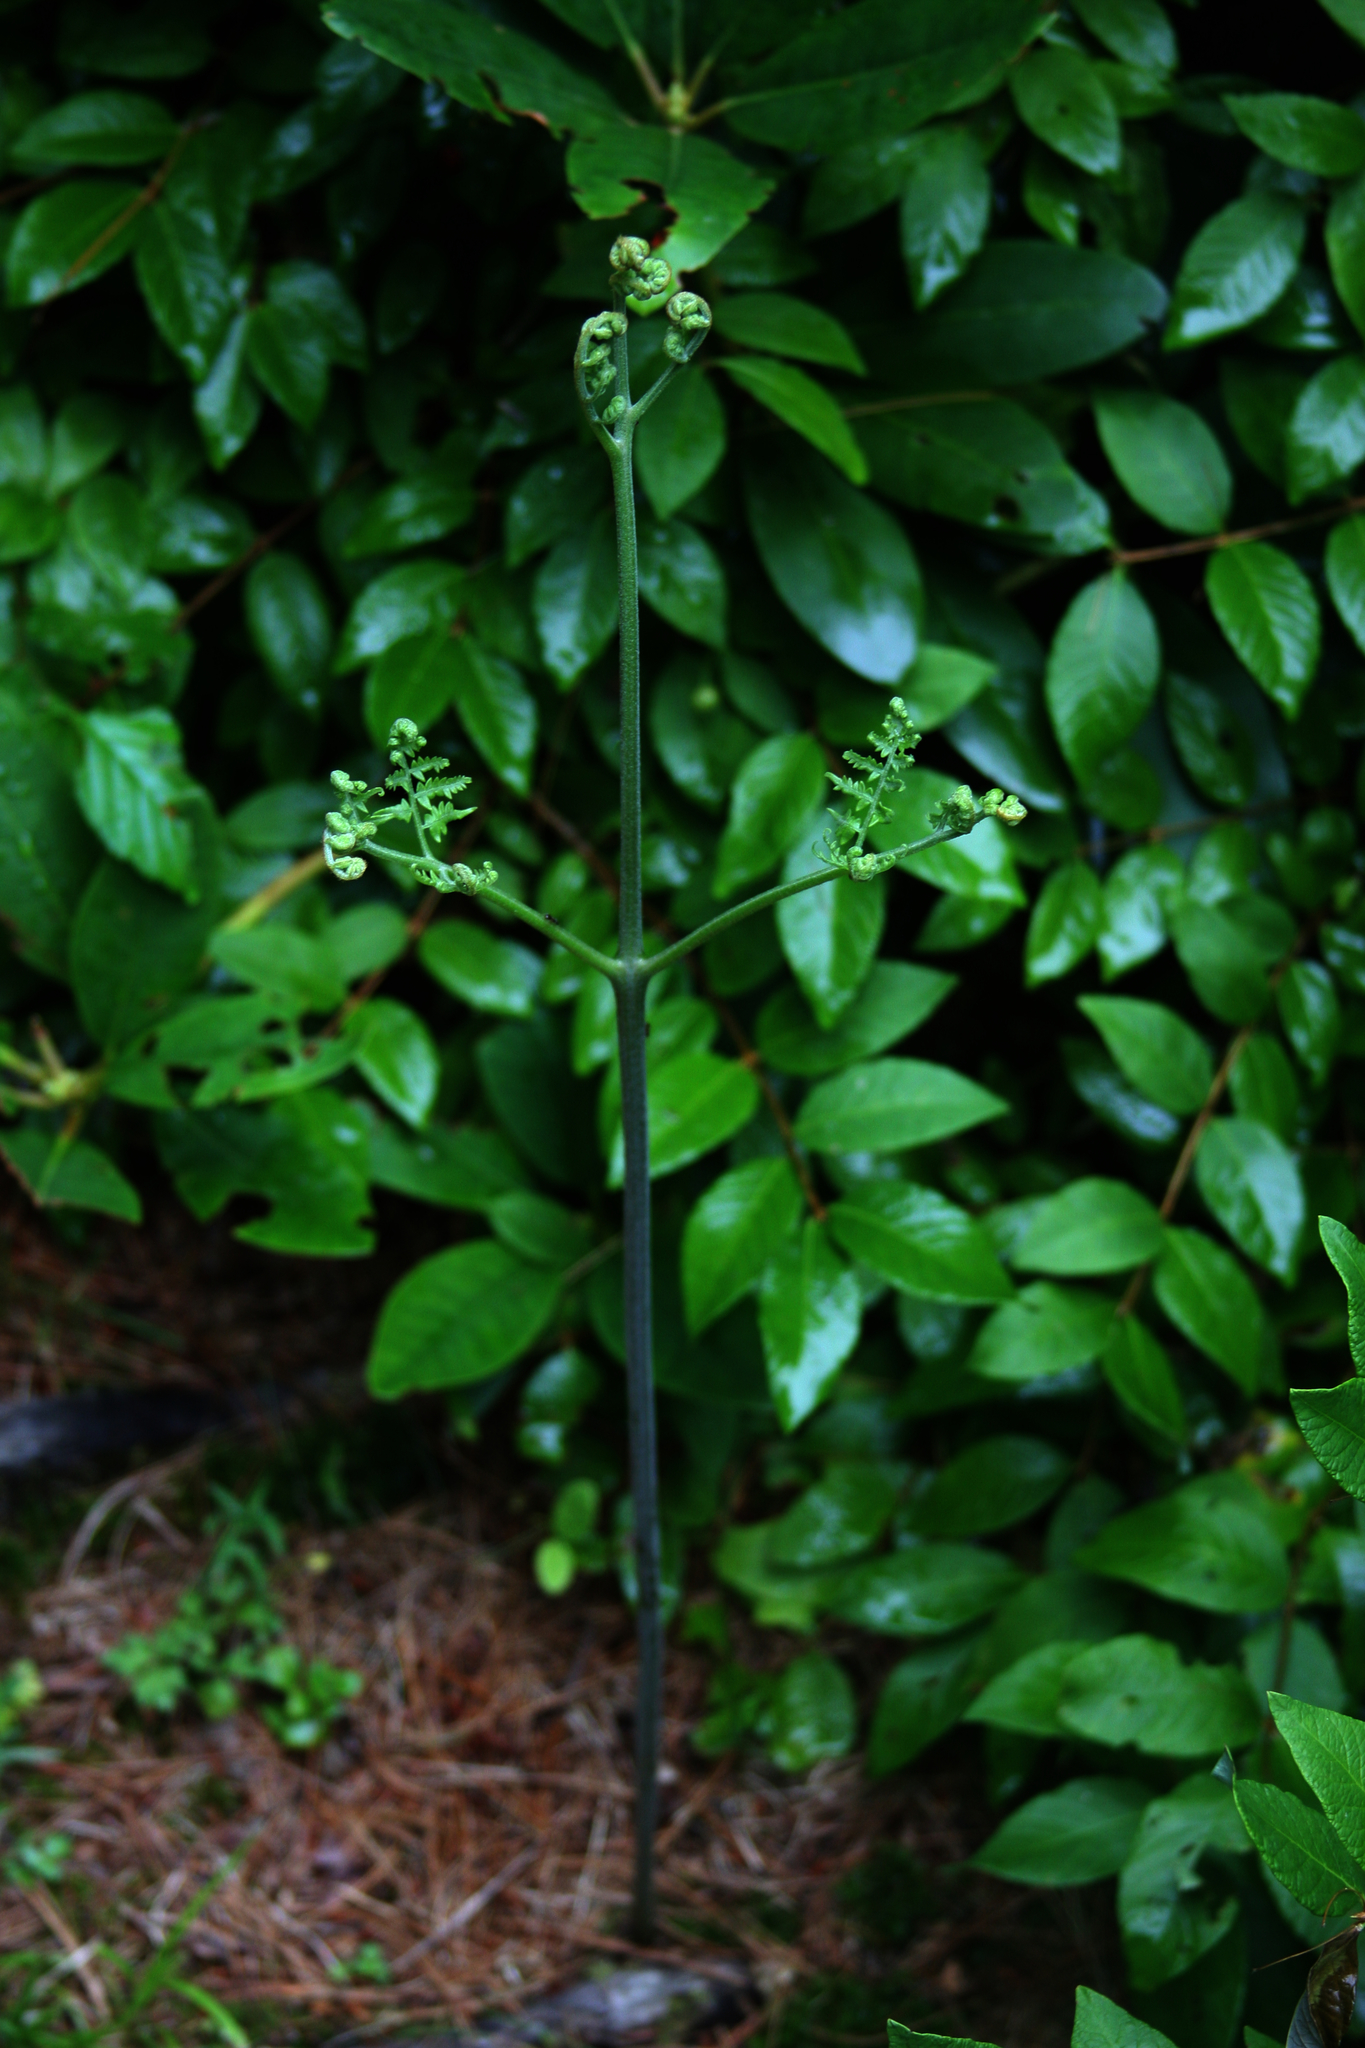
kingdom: Plantae
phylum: Tracheophyta
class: Polypodiopsida
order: Polypodiales
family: Dennstaedtiaceae
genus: Pteridium
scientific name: Pteridium aquilinum
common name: Bracken
